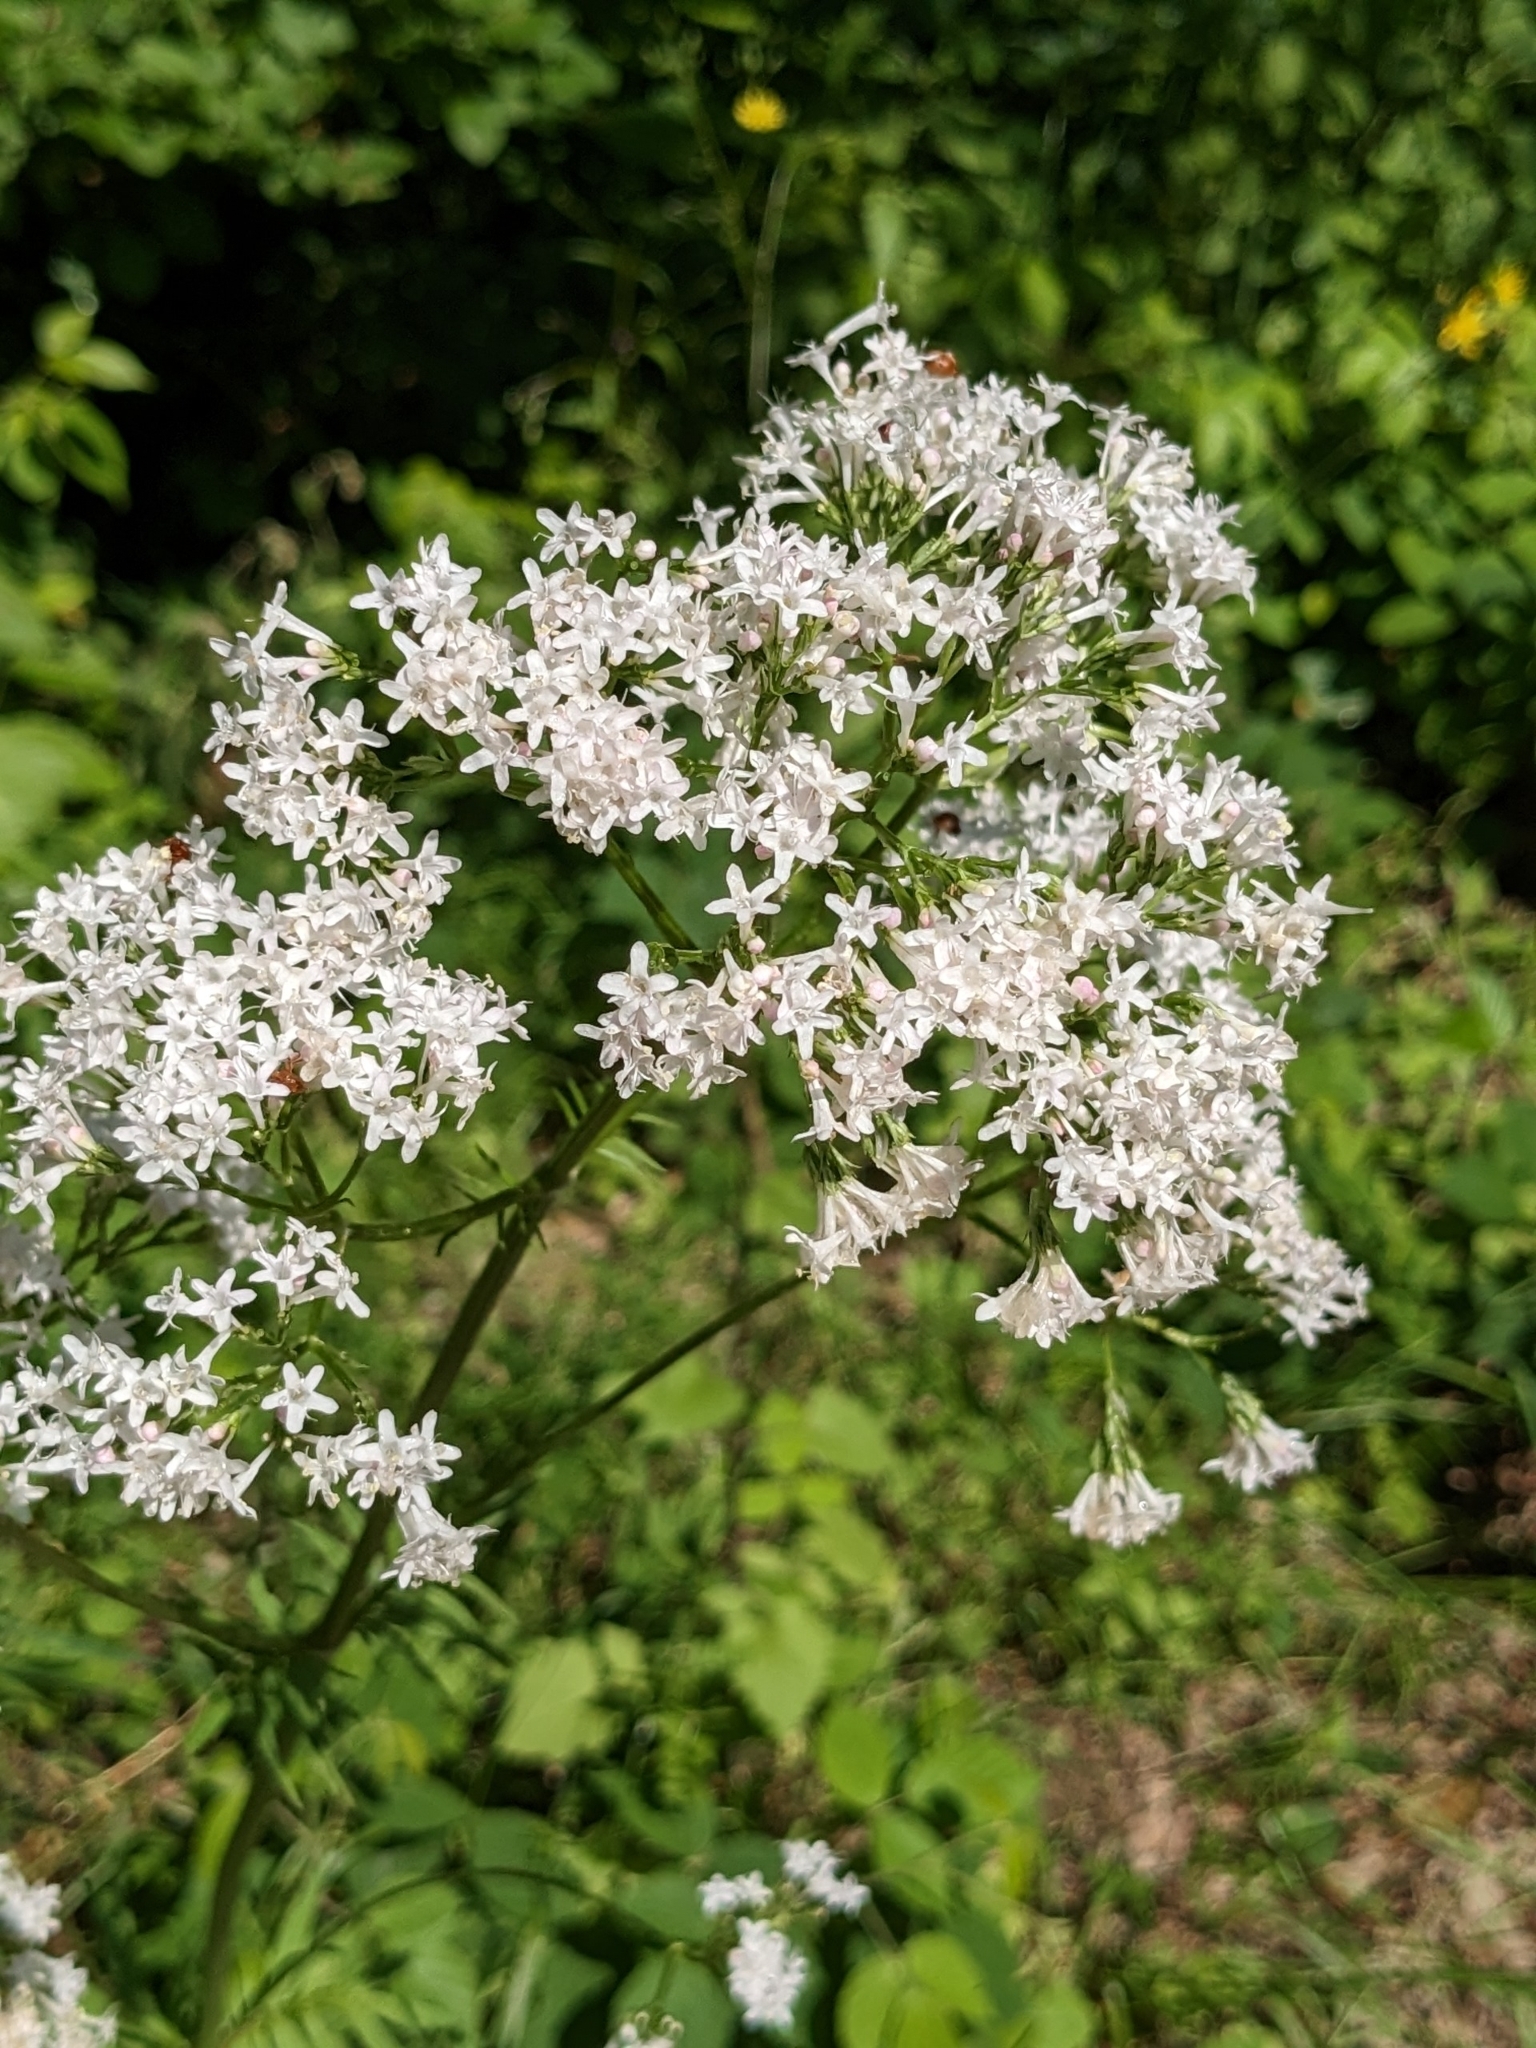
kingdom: Plantae
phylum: Tracheophyta
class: Magnoliopsida
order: Dipsacales
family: Caprifoliaceae
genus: Valeriana
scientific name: Valeriana officinalis
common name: Common valerian
